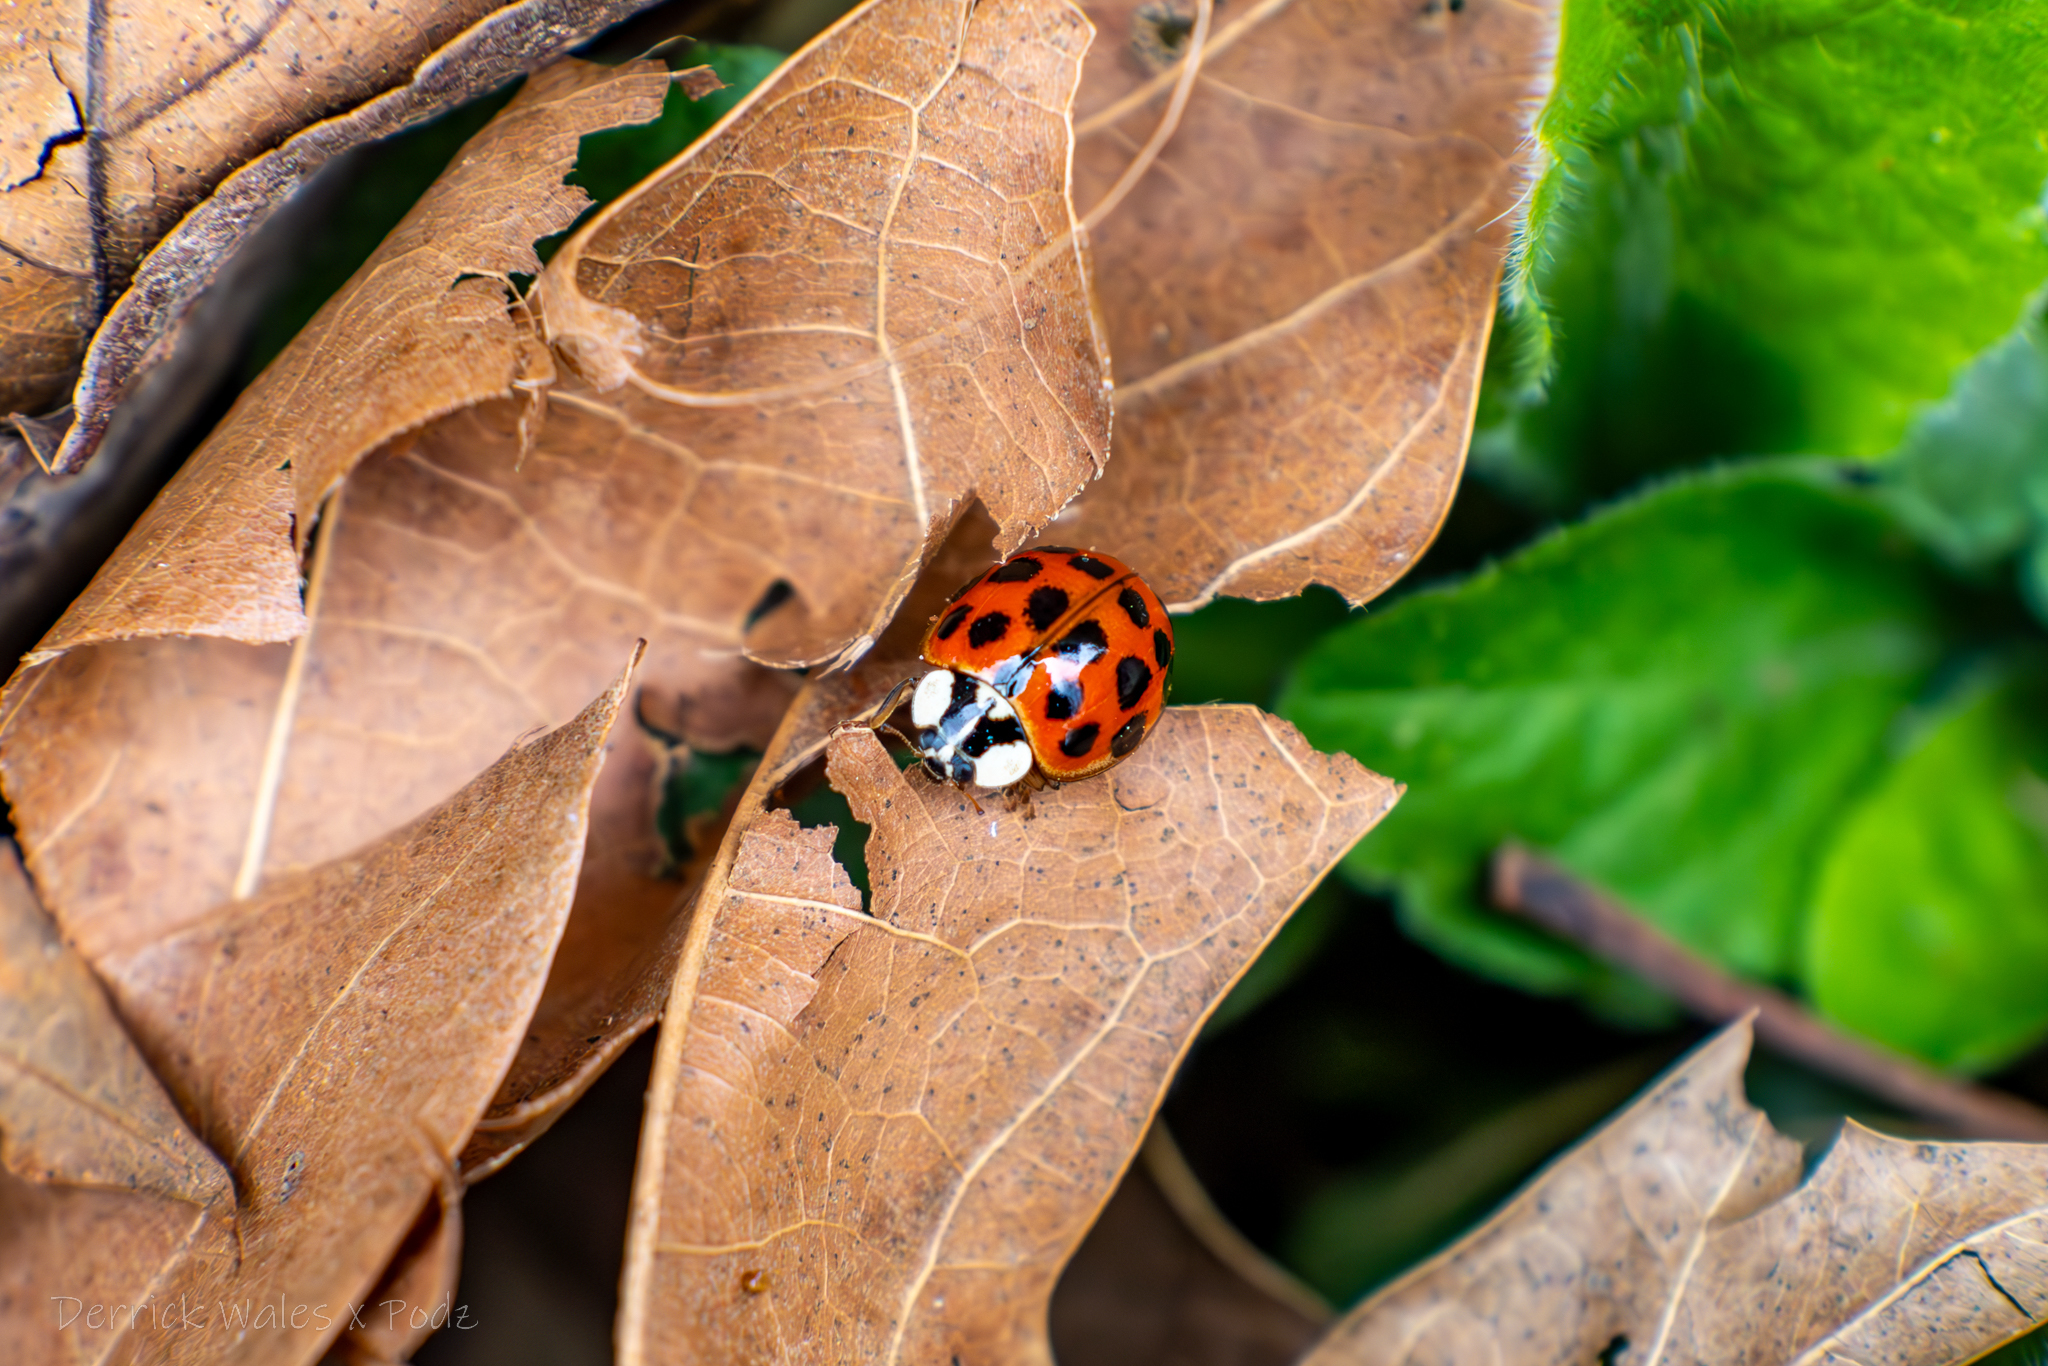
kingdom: Animalia
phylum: Arthropoda
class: Insecta
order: Coleoptera
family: Coccinellidae
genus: Harmonia
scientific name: Harmonia axyridis
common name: Harlequin ladybird
